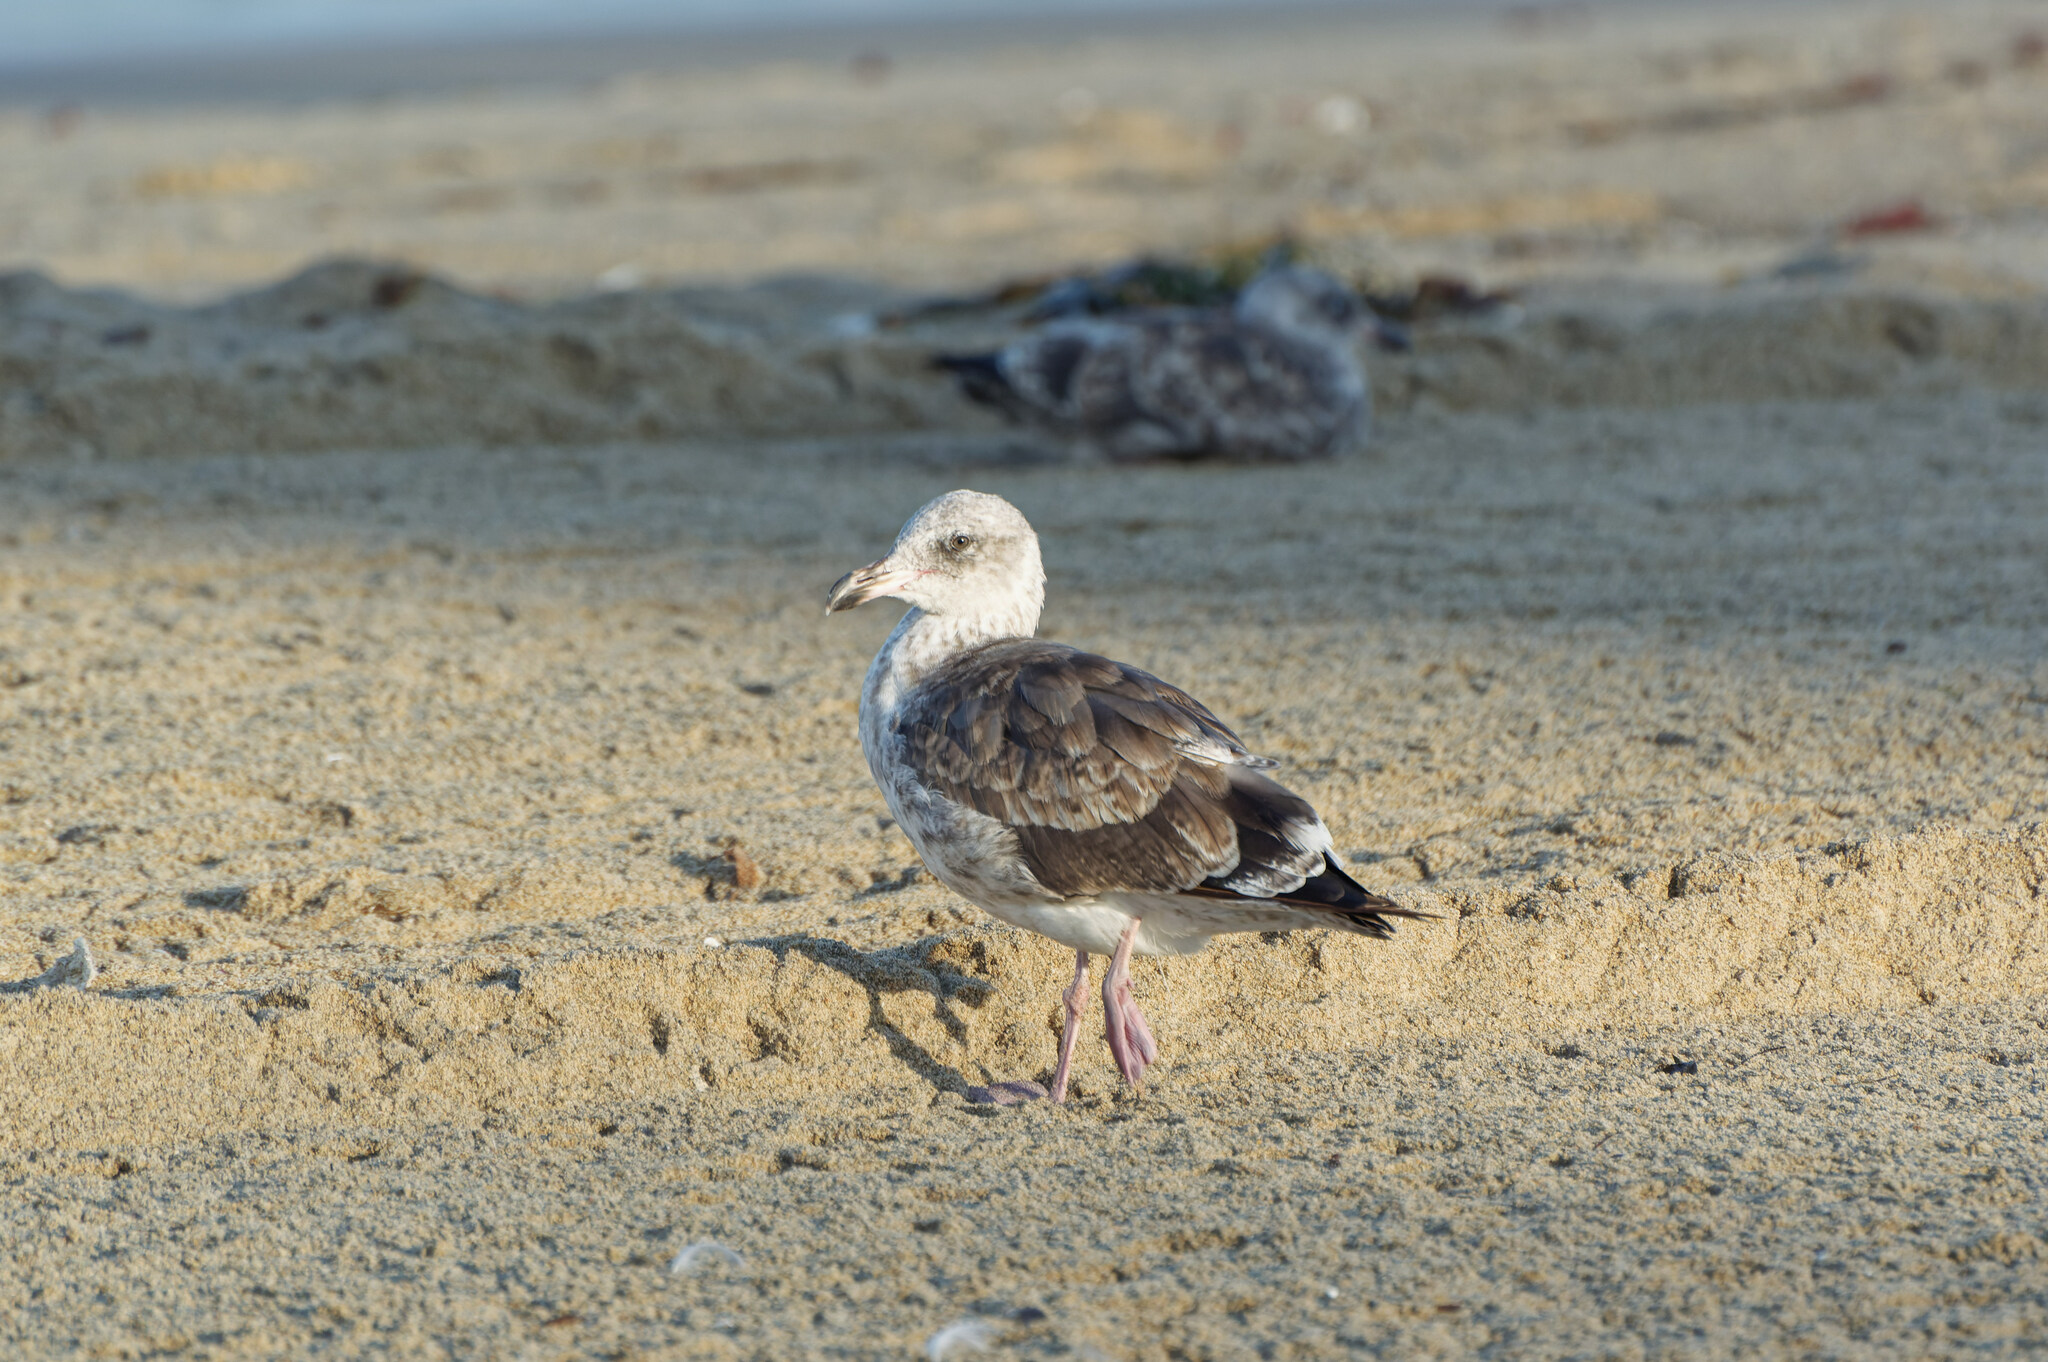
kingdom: Animalia
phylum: Chordata
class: Aves
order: Charadriiformes
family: Laridae
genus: Larus
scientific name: Larus occidentalis
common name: Western gull
